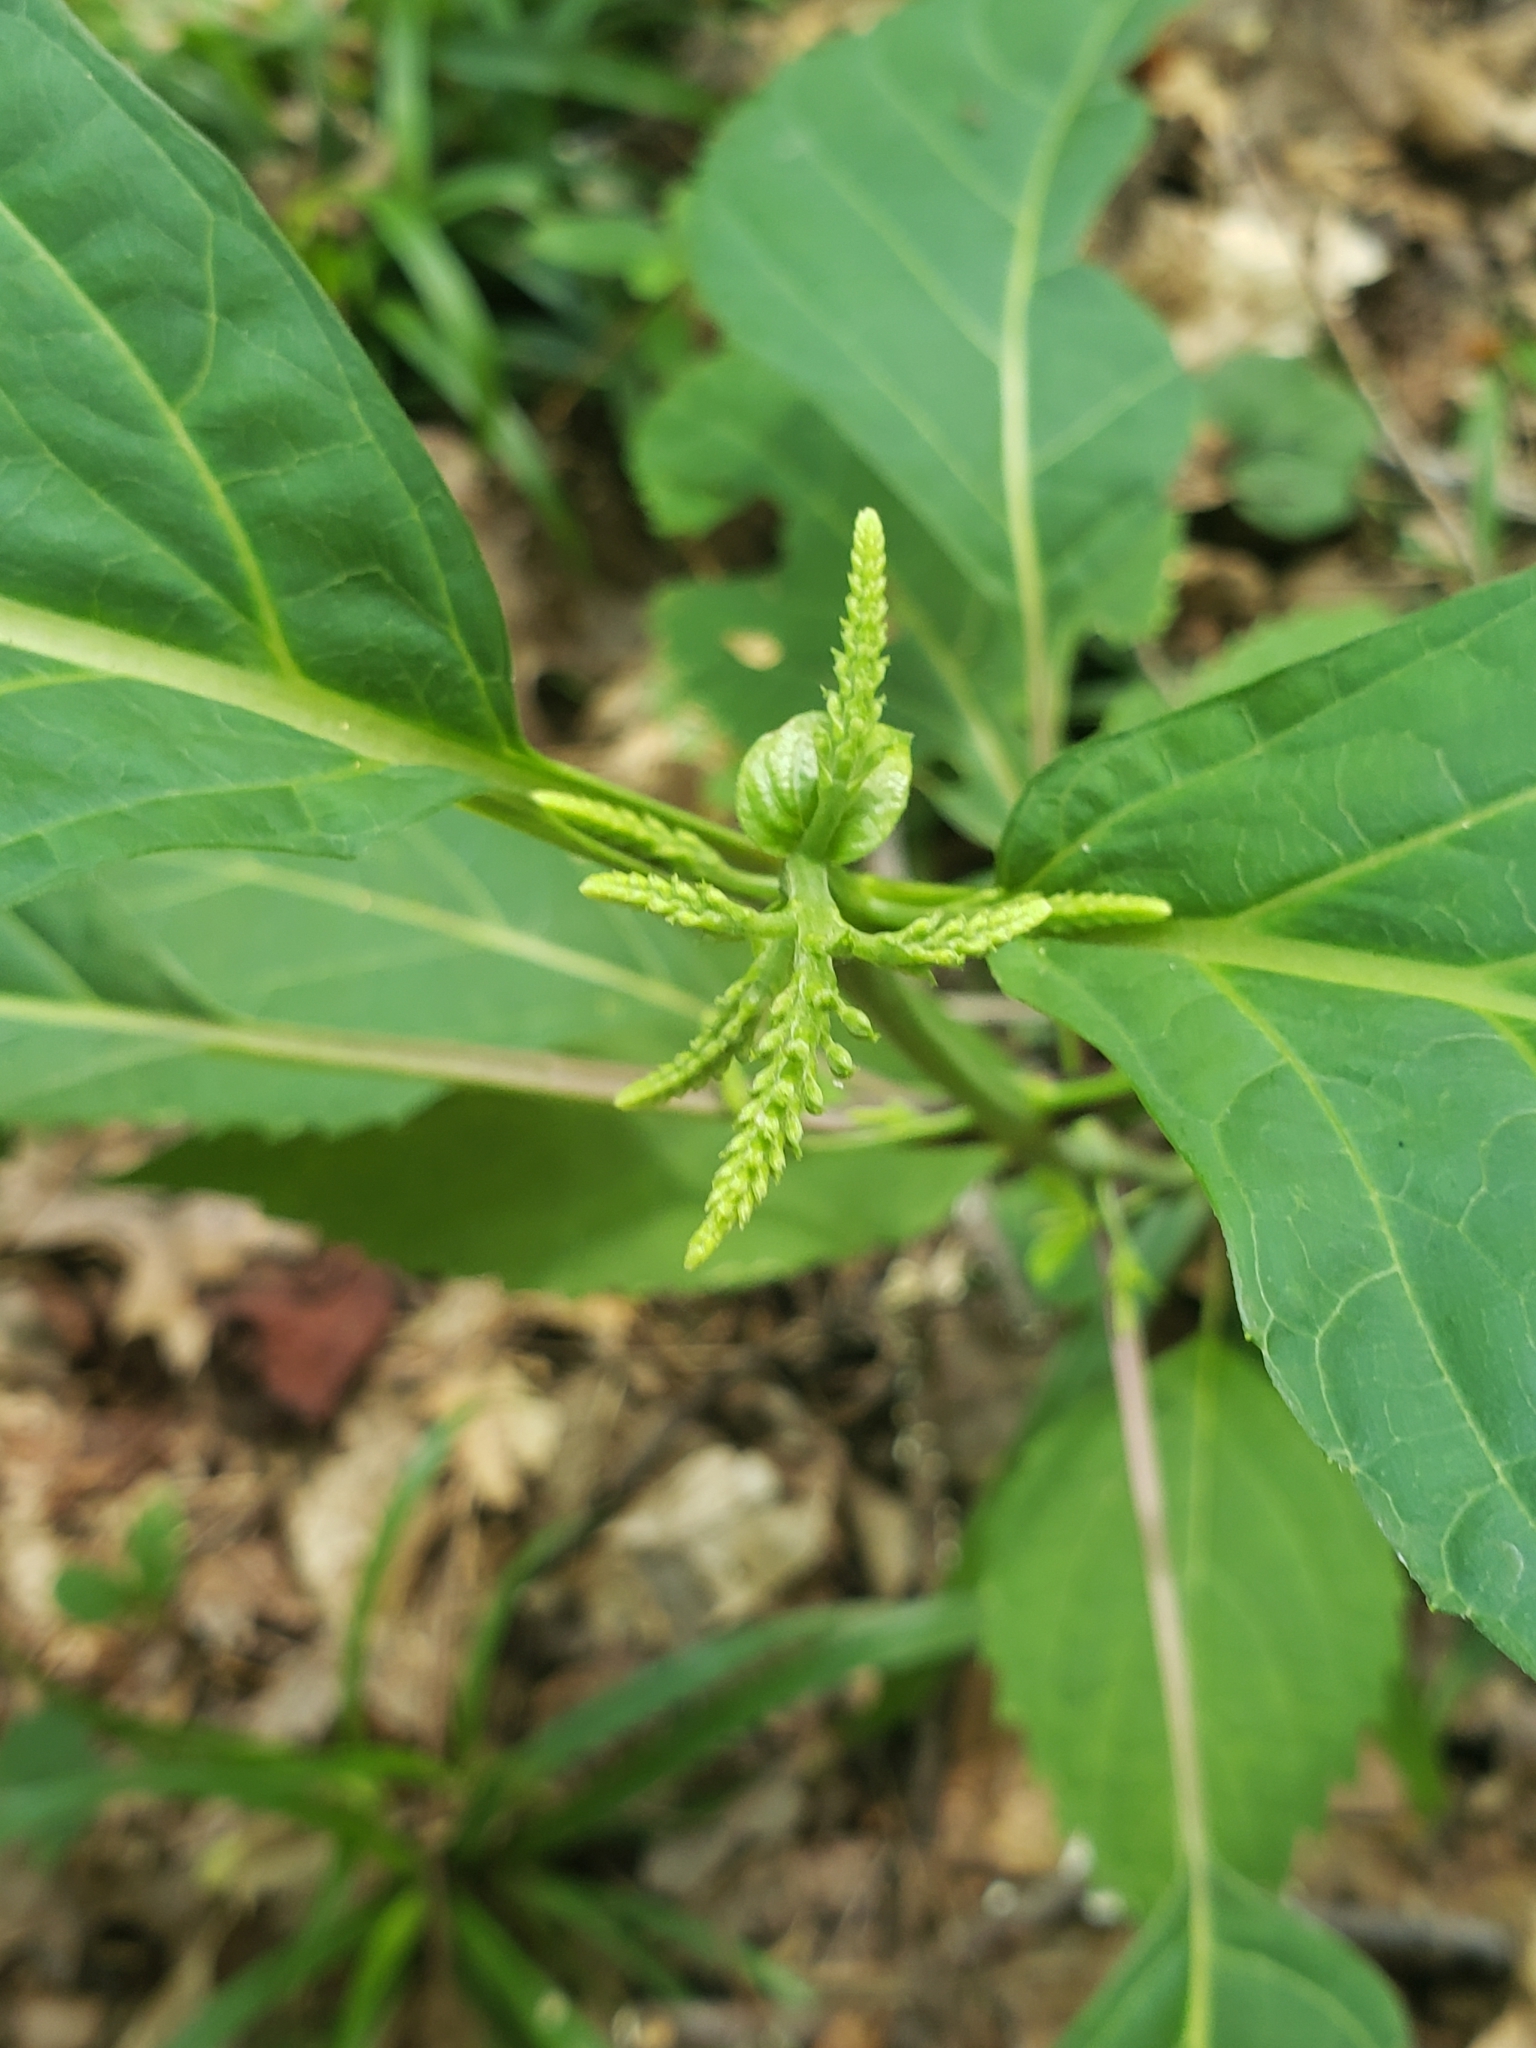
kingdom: Plantae
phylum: Tracheophyta
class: Magnoliopsida
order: Lamiales
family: Lamiaceae
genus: Collinsonia
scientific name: Collinsonia canadensis
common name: Northern horsebalm
